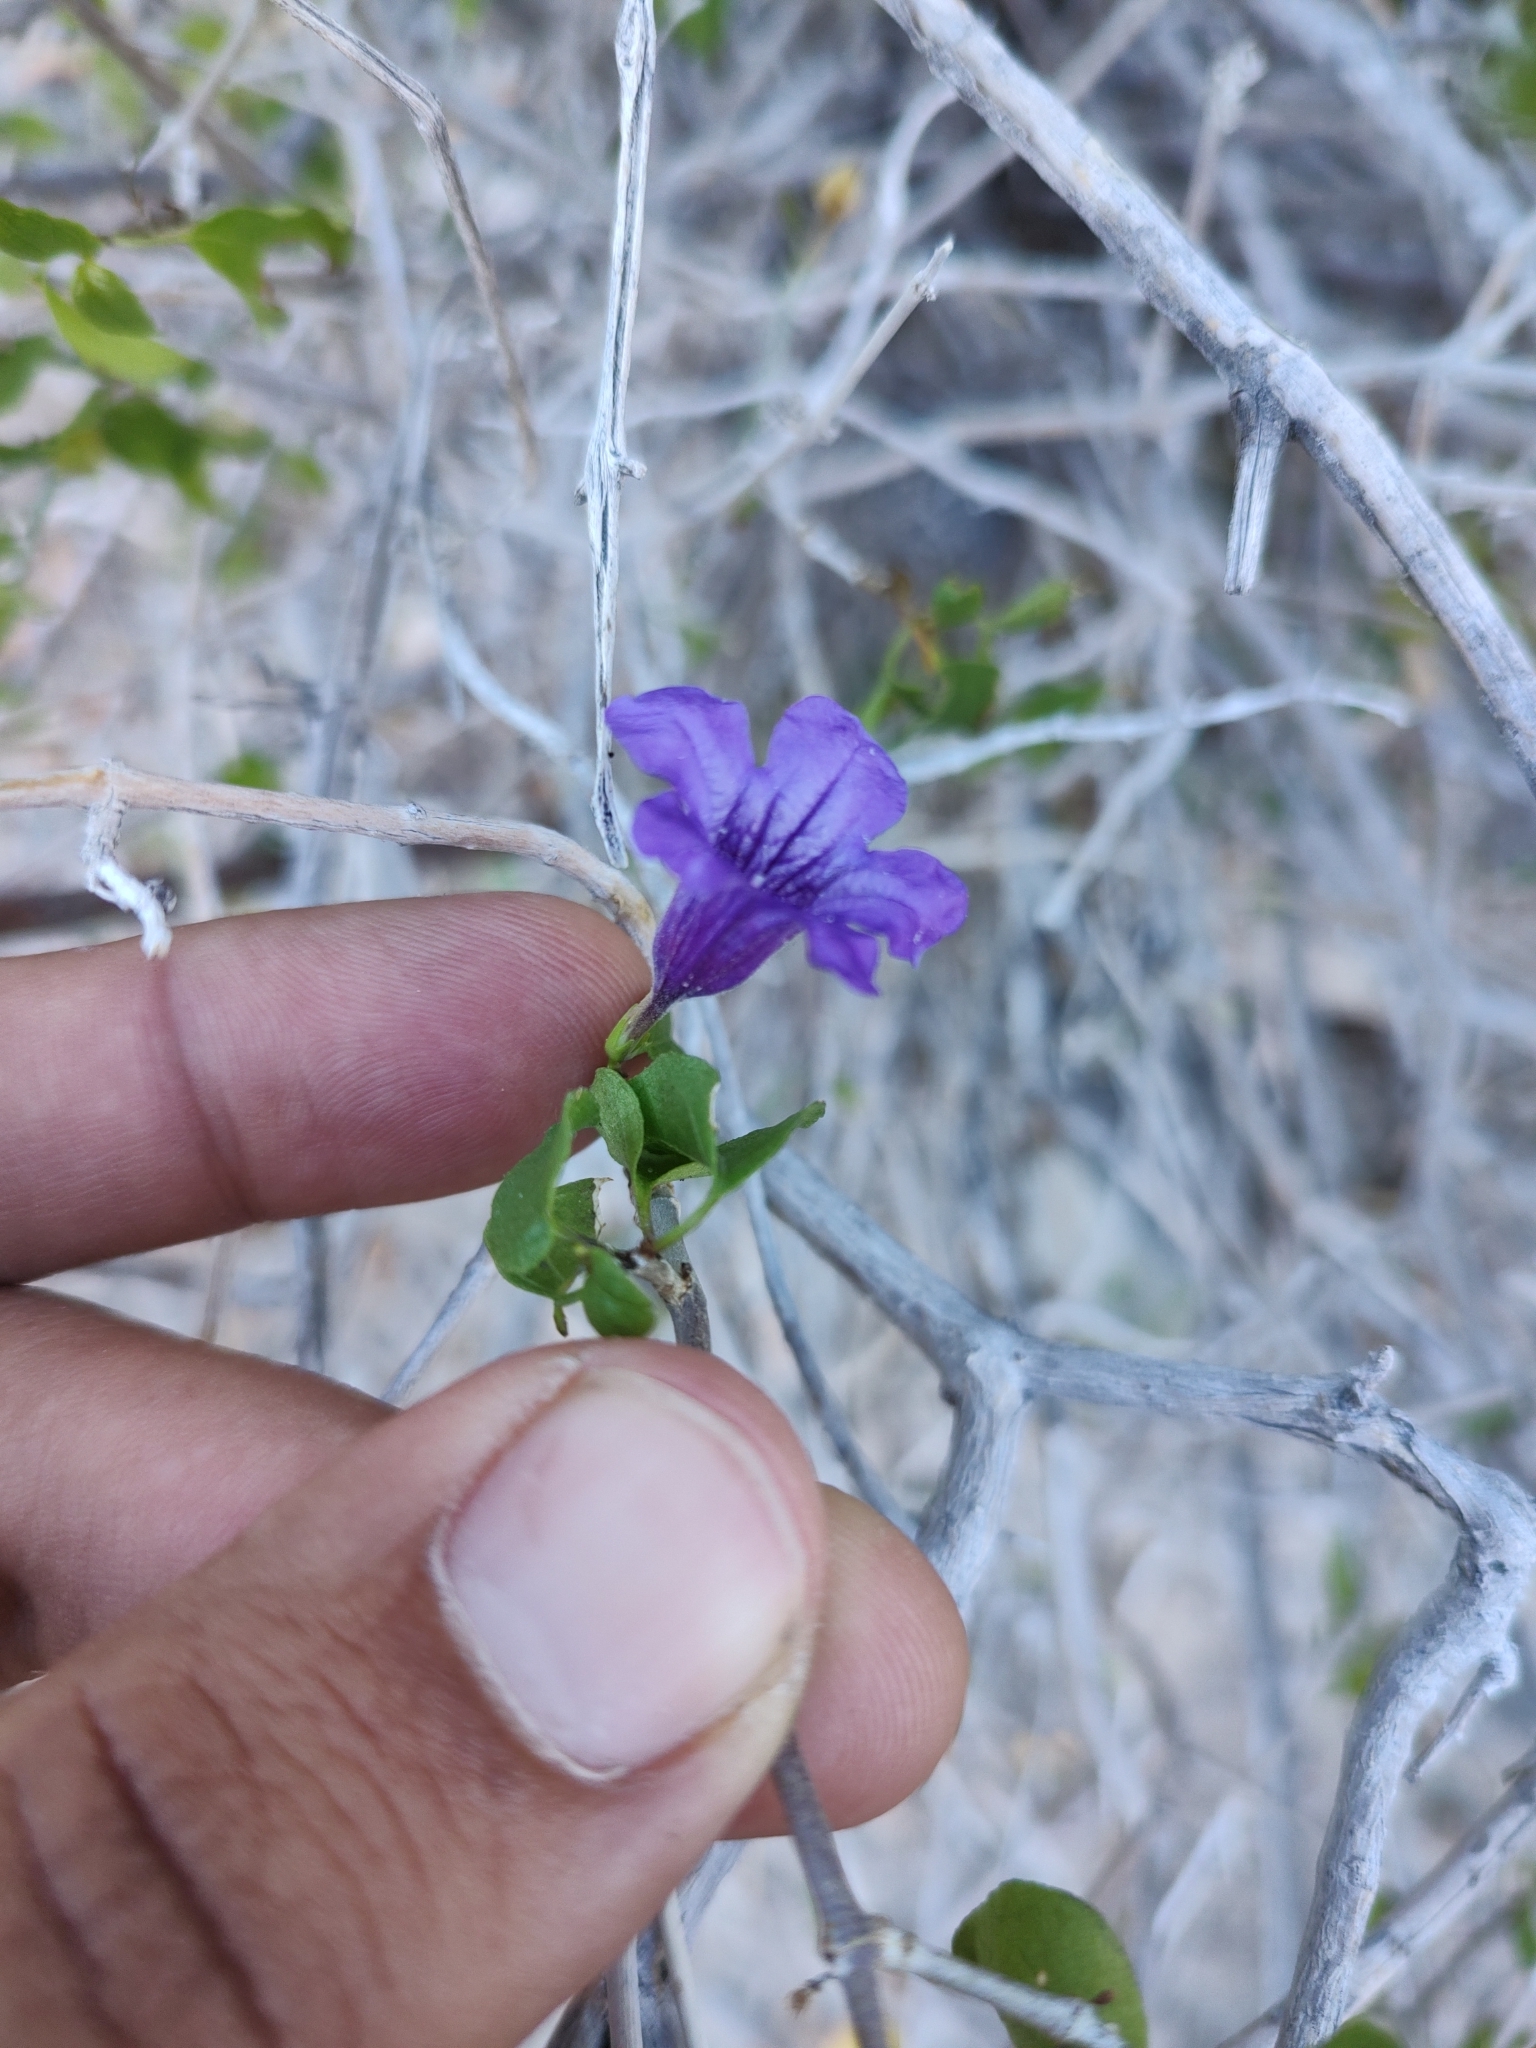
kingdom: Plantae
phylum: Tracheophyta
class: Magnoliopsida
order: Lamiales
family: Acanthaceae
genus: Ruellia
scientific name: Ruellia californica
